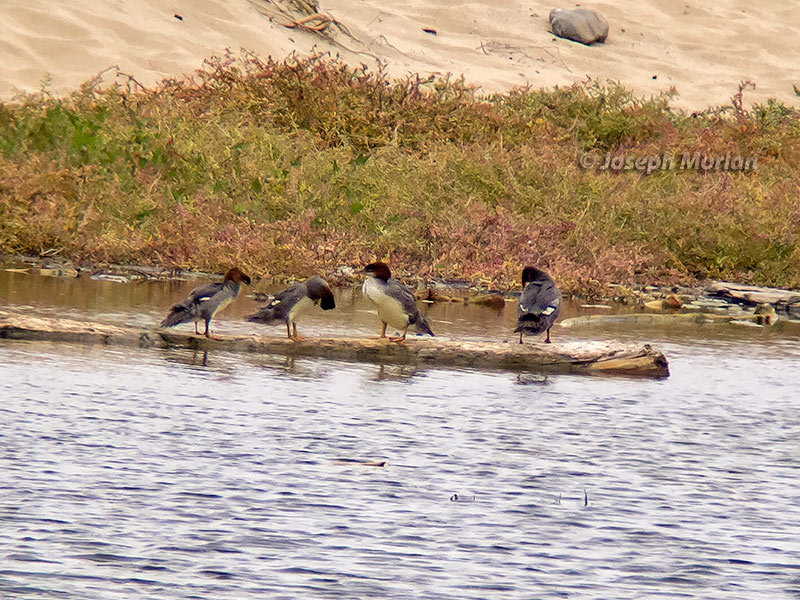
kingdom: Animalia
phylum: Chordata
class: Aves
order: Anseriformes
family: Anatidae
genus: Mergus
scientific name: Mergus merganser
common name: Common merganser
